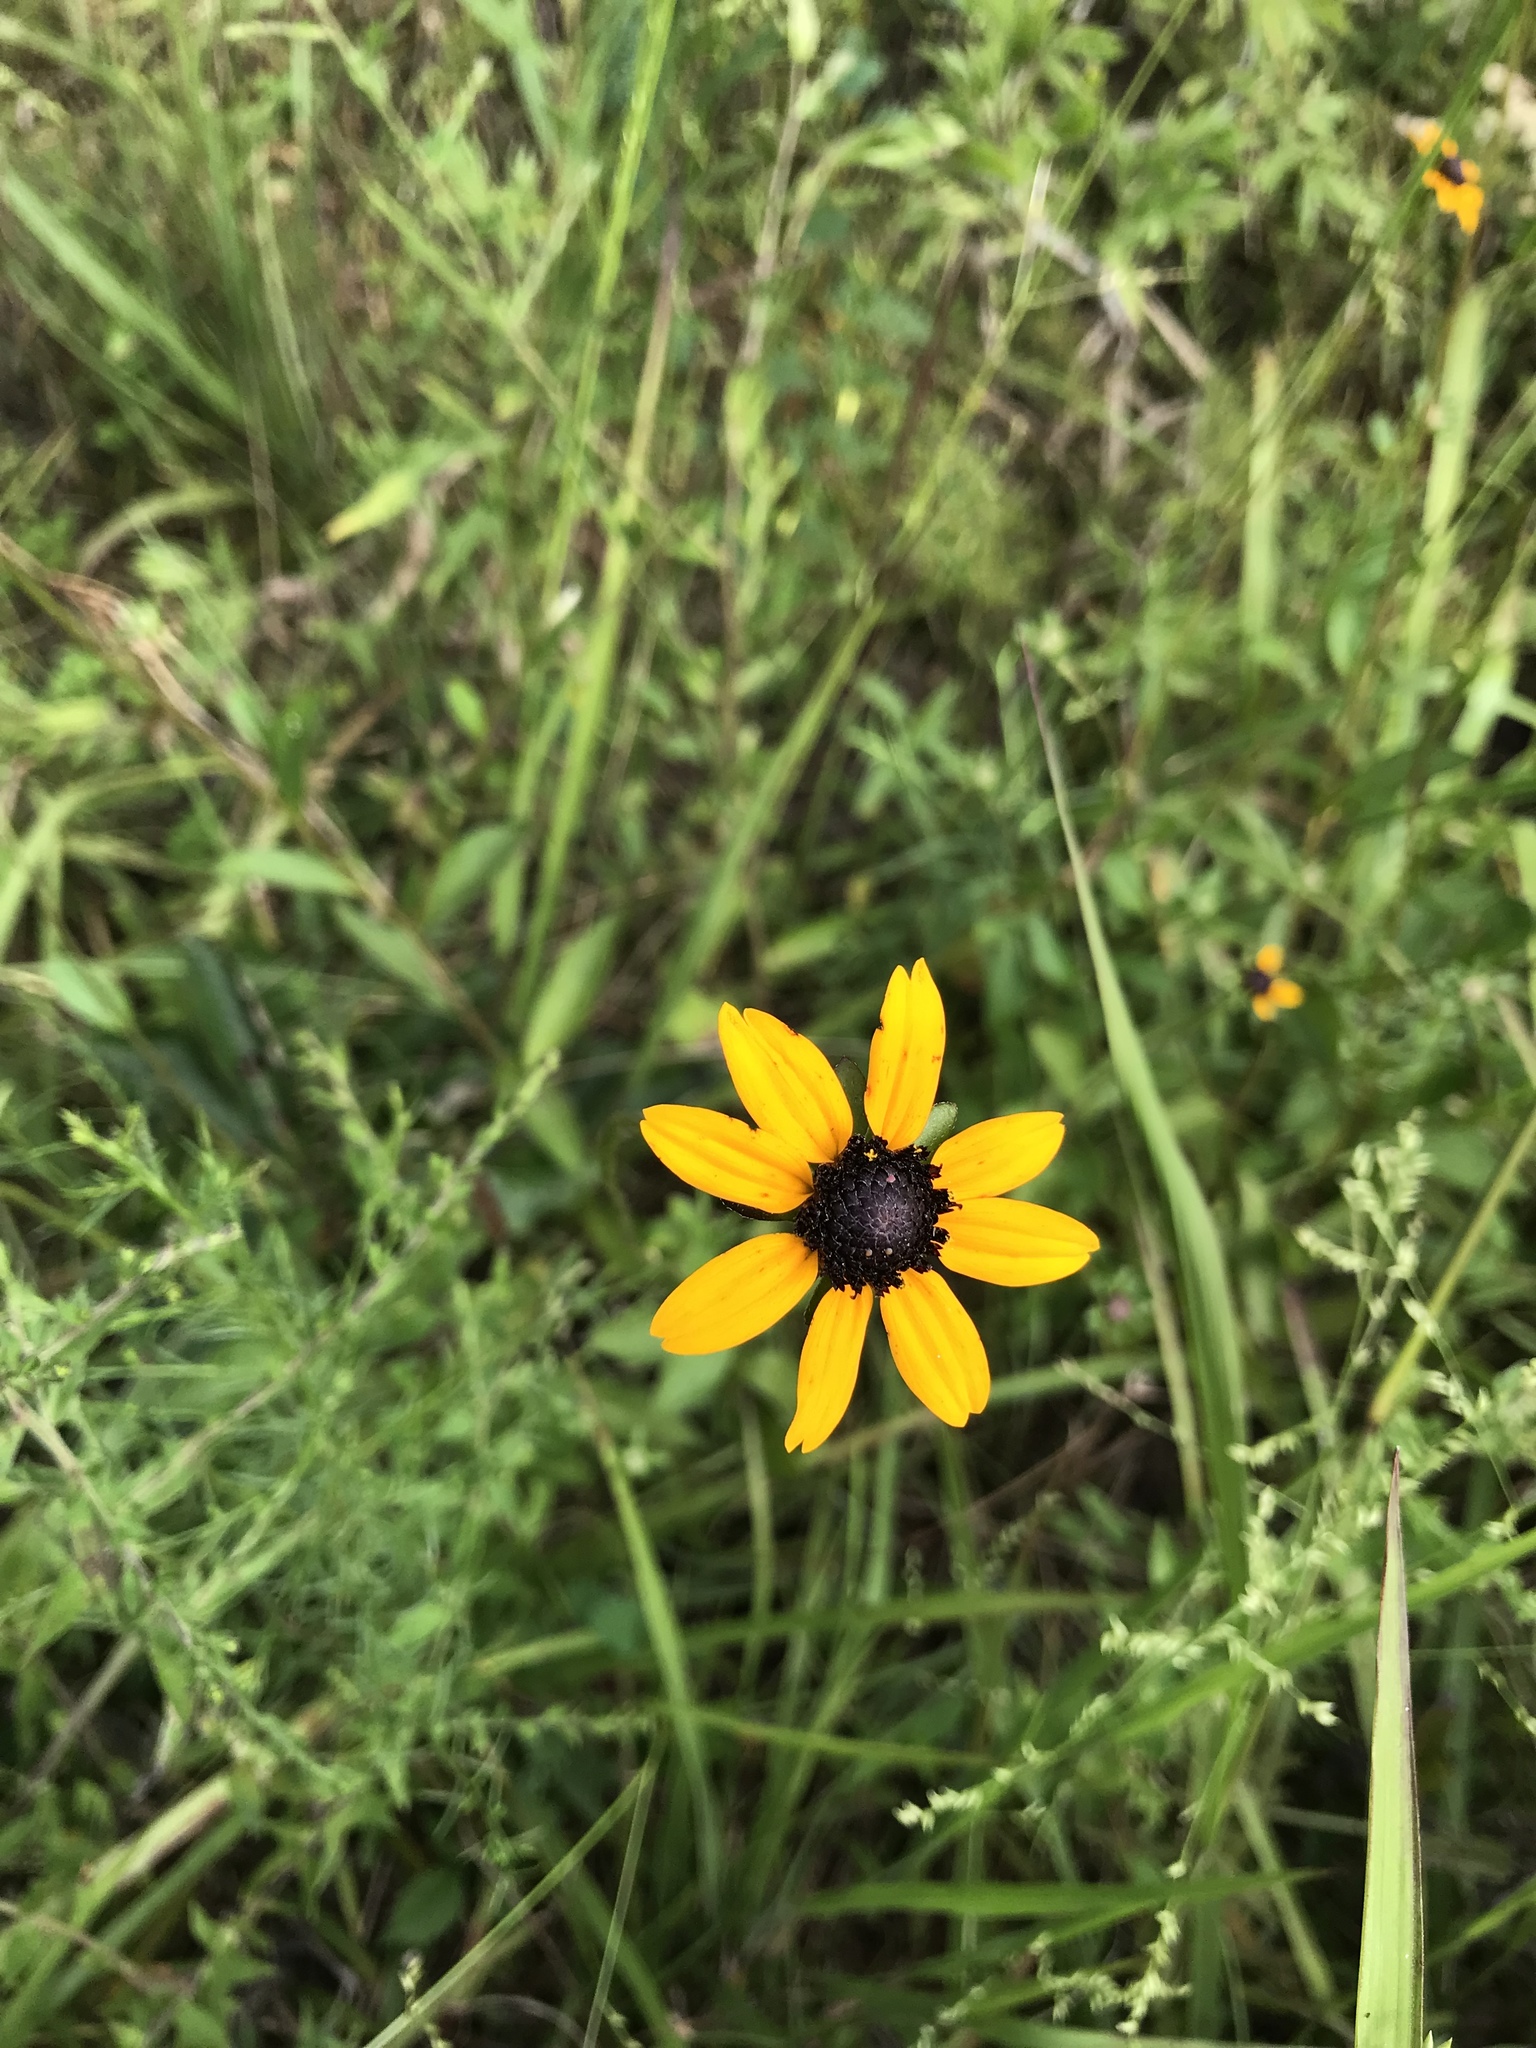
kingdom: Plantae
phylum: Tracheophyta
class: Magnoliopsida
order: Asterales
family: Asteraceae
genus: Rudbeckia
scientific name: Rudbeckia hirta
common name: Black-eyed-susan
